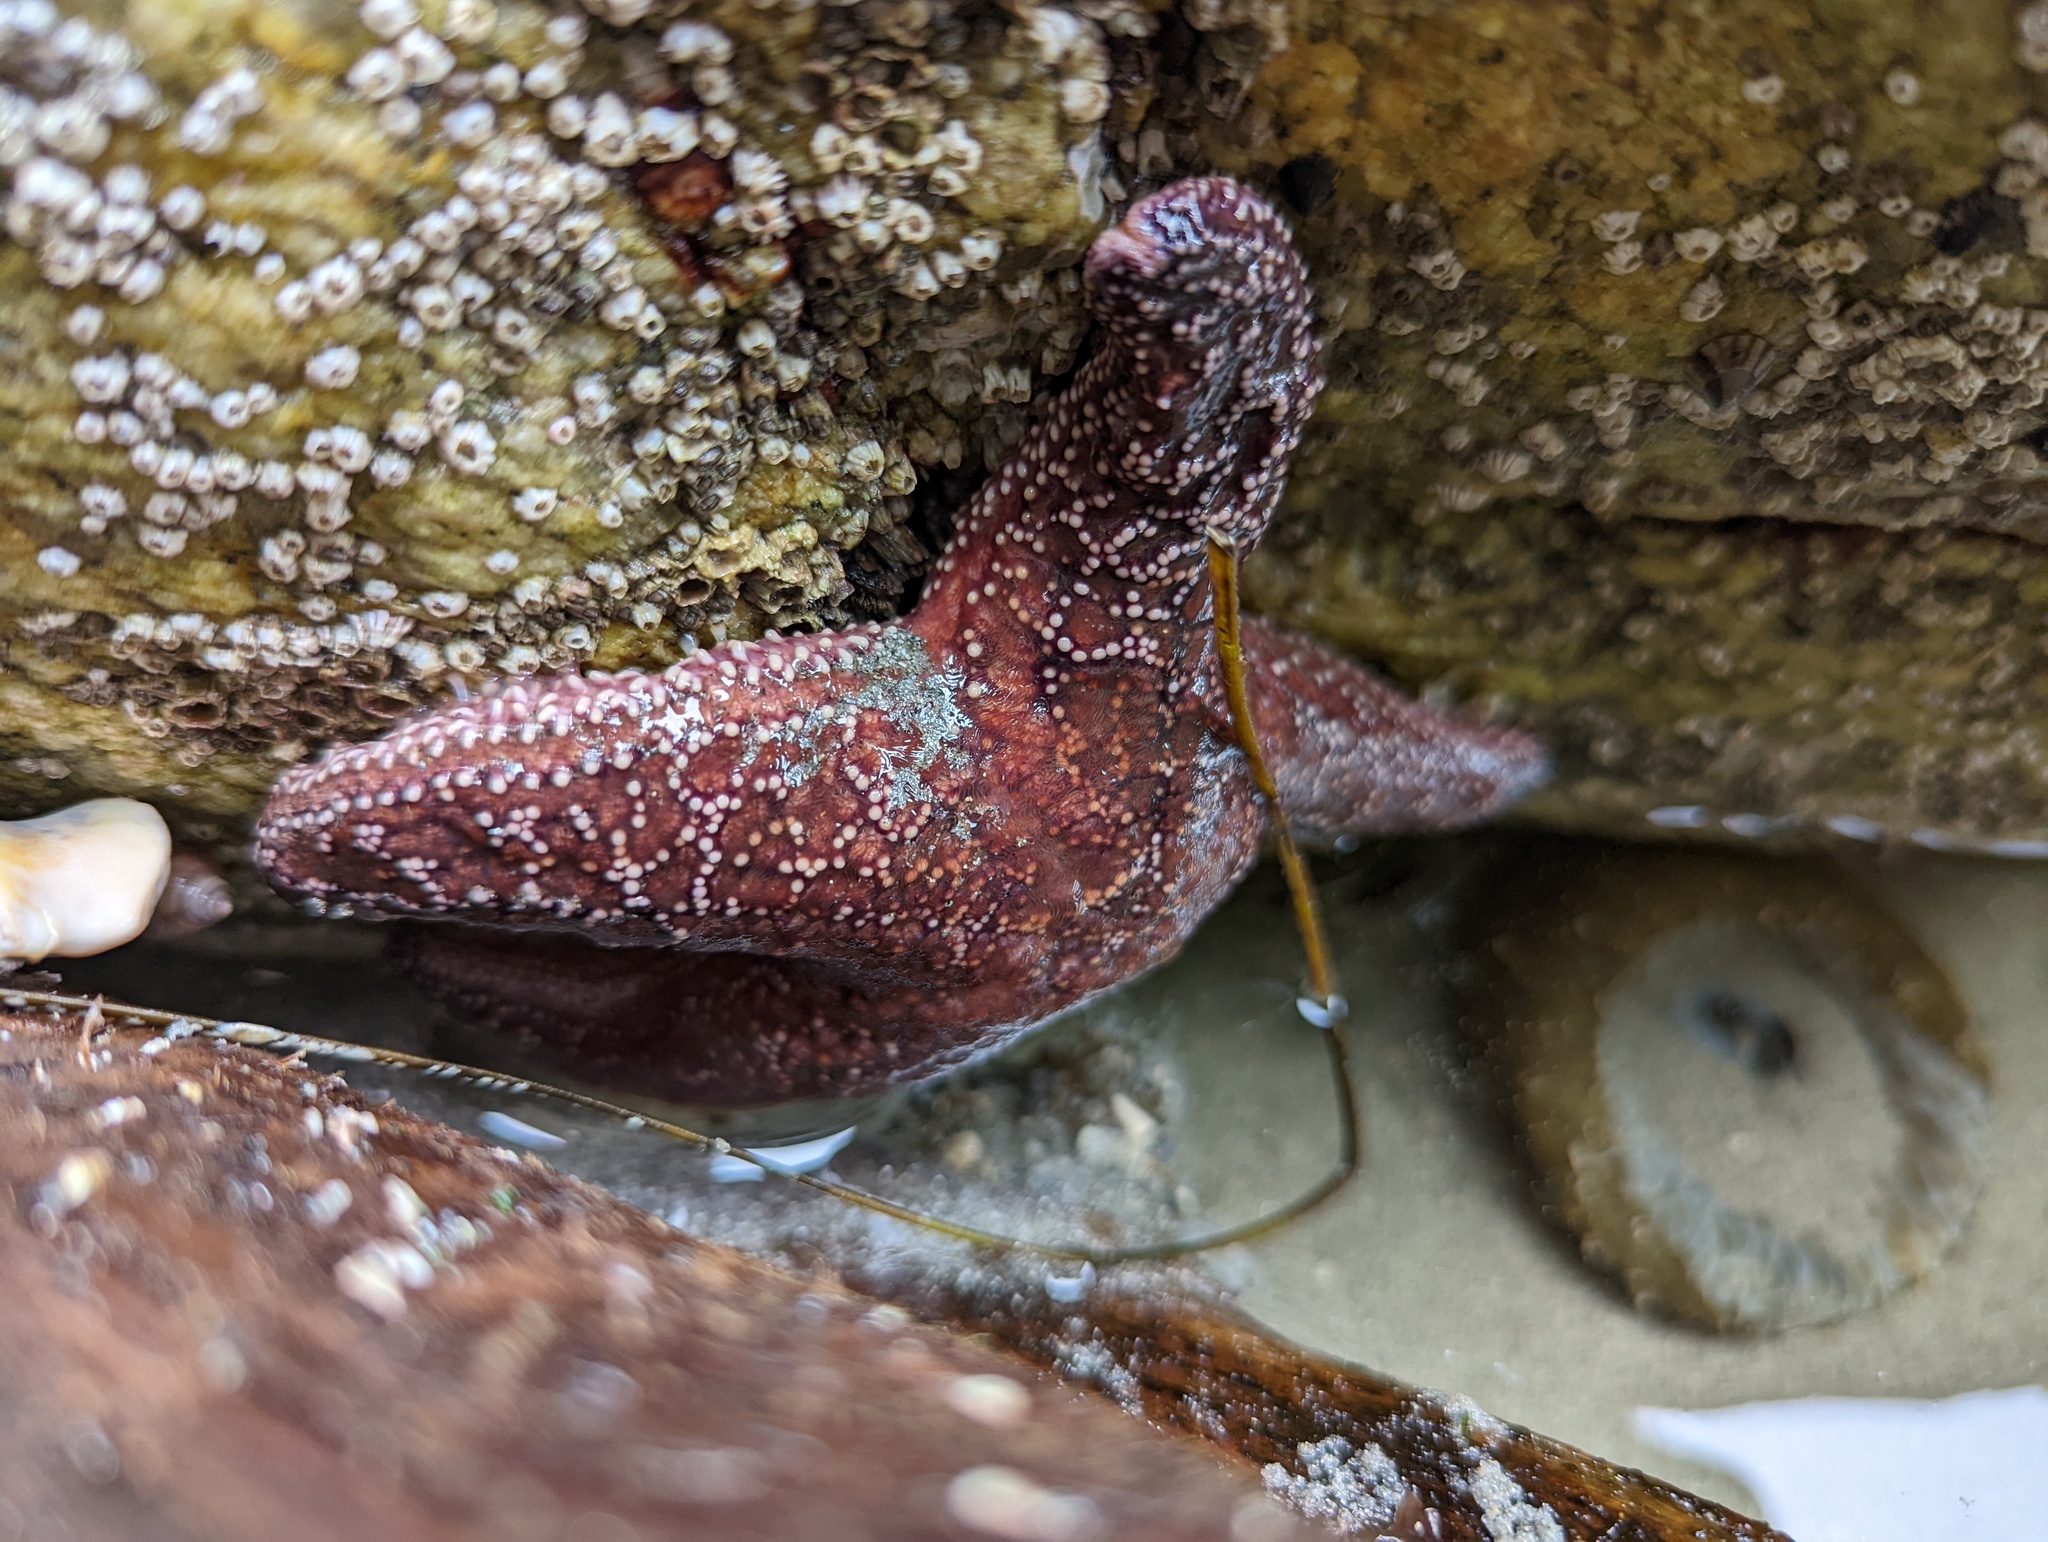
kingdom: Animalia
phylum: Echinodermata
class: Asteroidea
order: Forcipulatida
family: Asteriidae
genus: Pisaster
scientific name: Pisaster ochraceus
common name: Ochre stars
